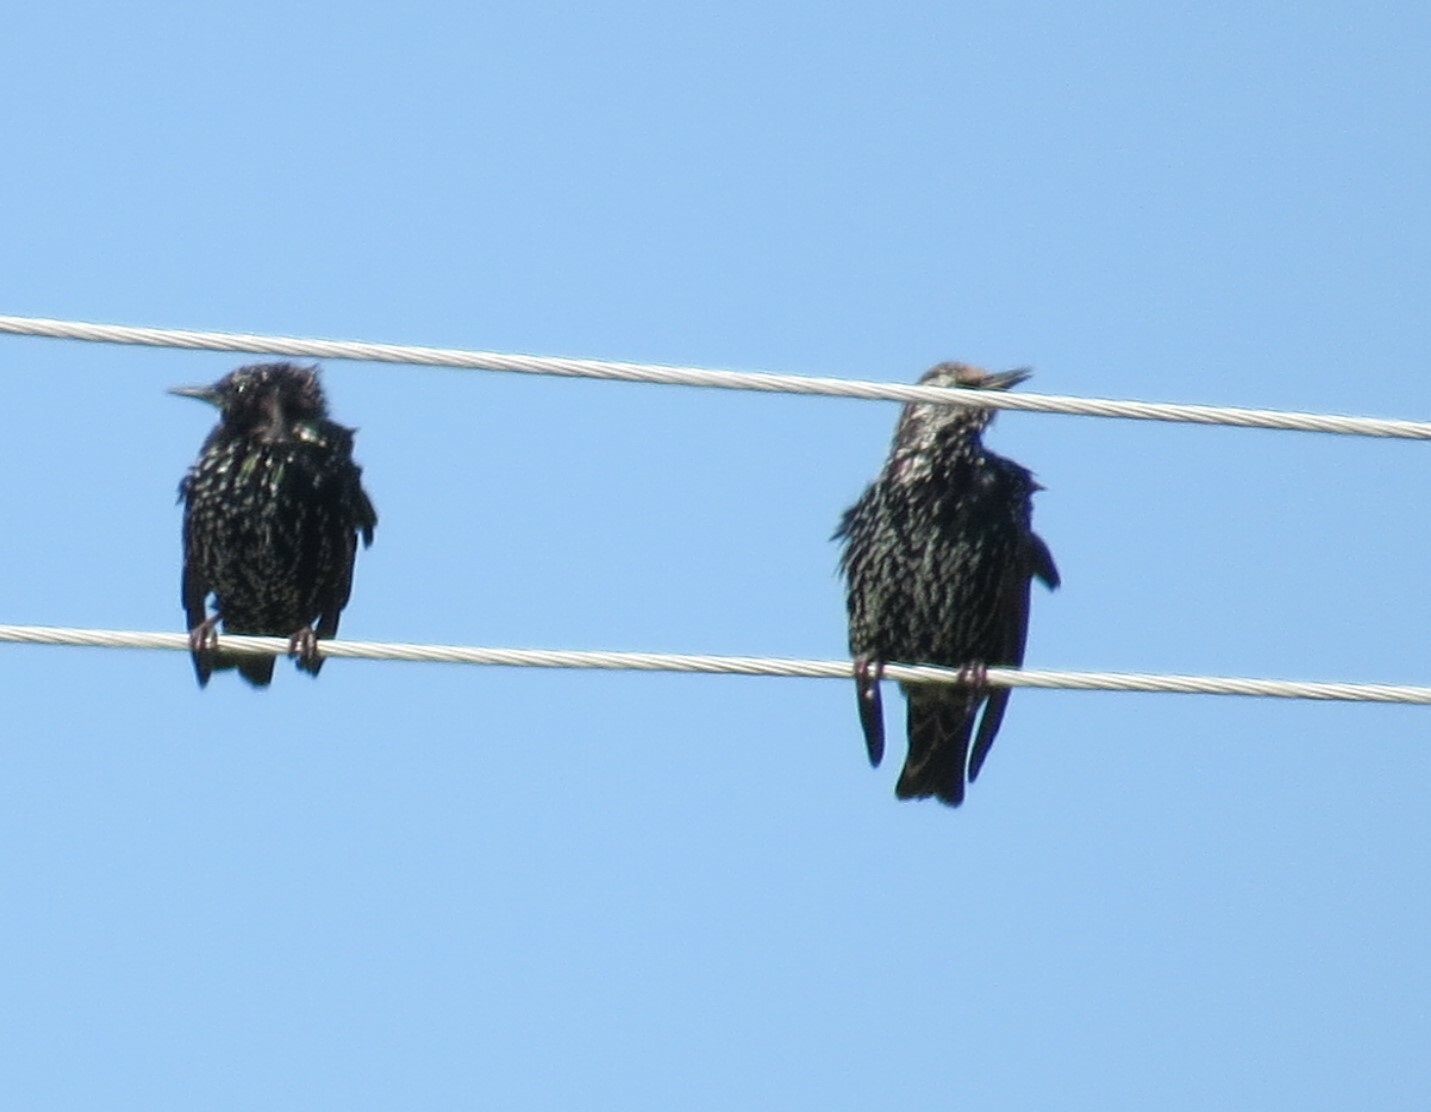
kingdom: Animalia
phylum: Chordata
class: Aves
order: Passeriformes
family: Sturnidae
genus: Sturnus
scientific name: Sturnus vulgaris
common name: Common starling
